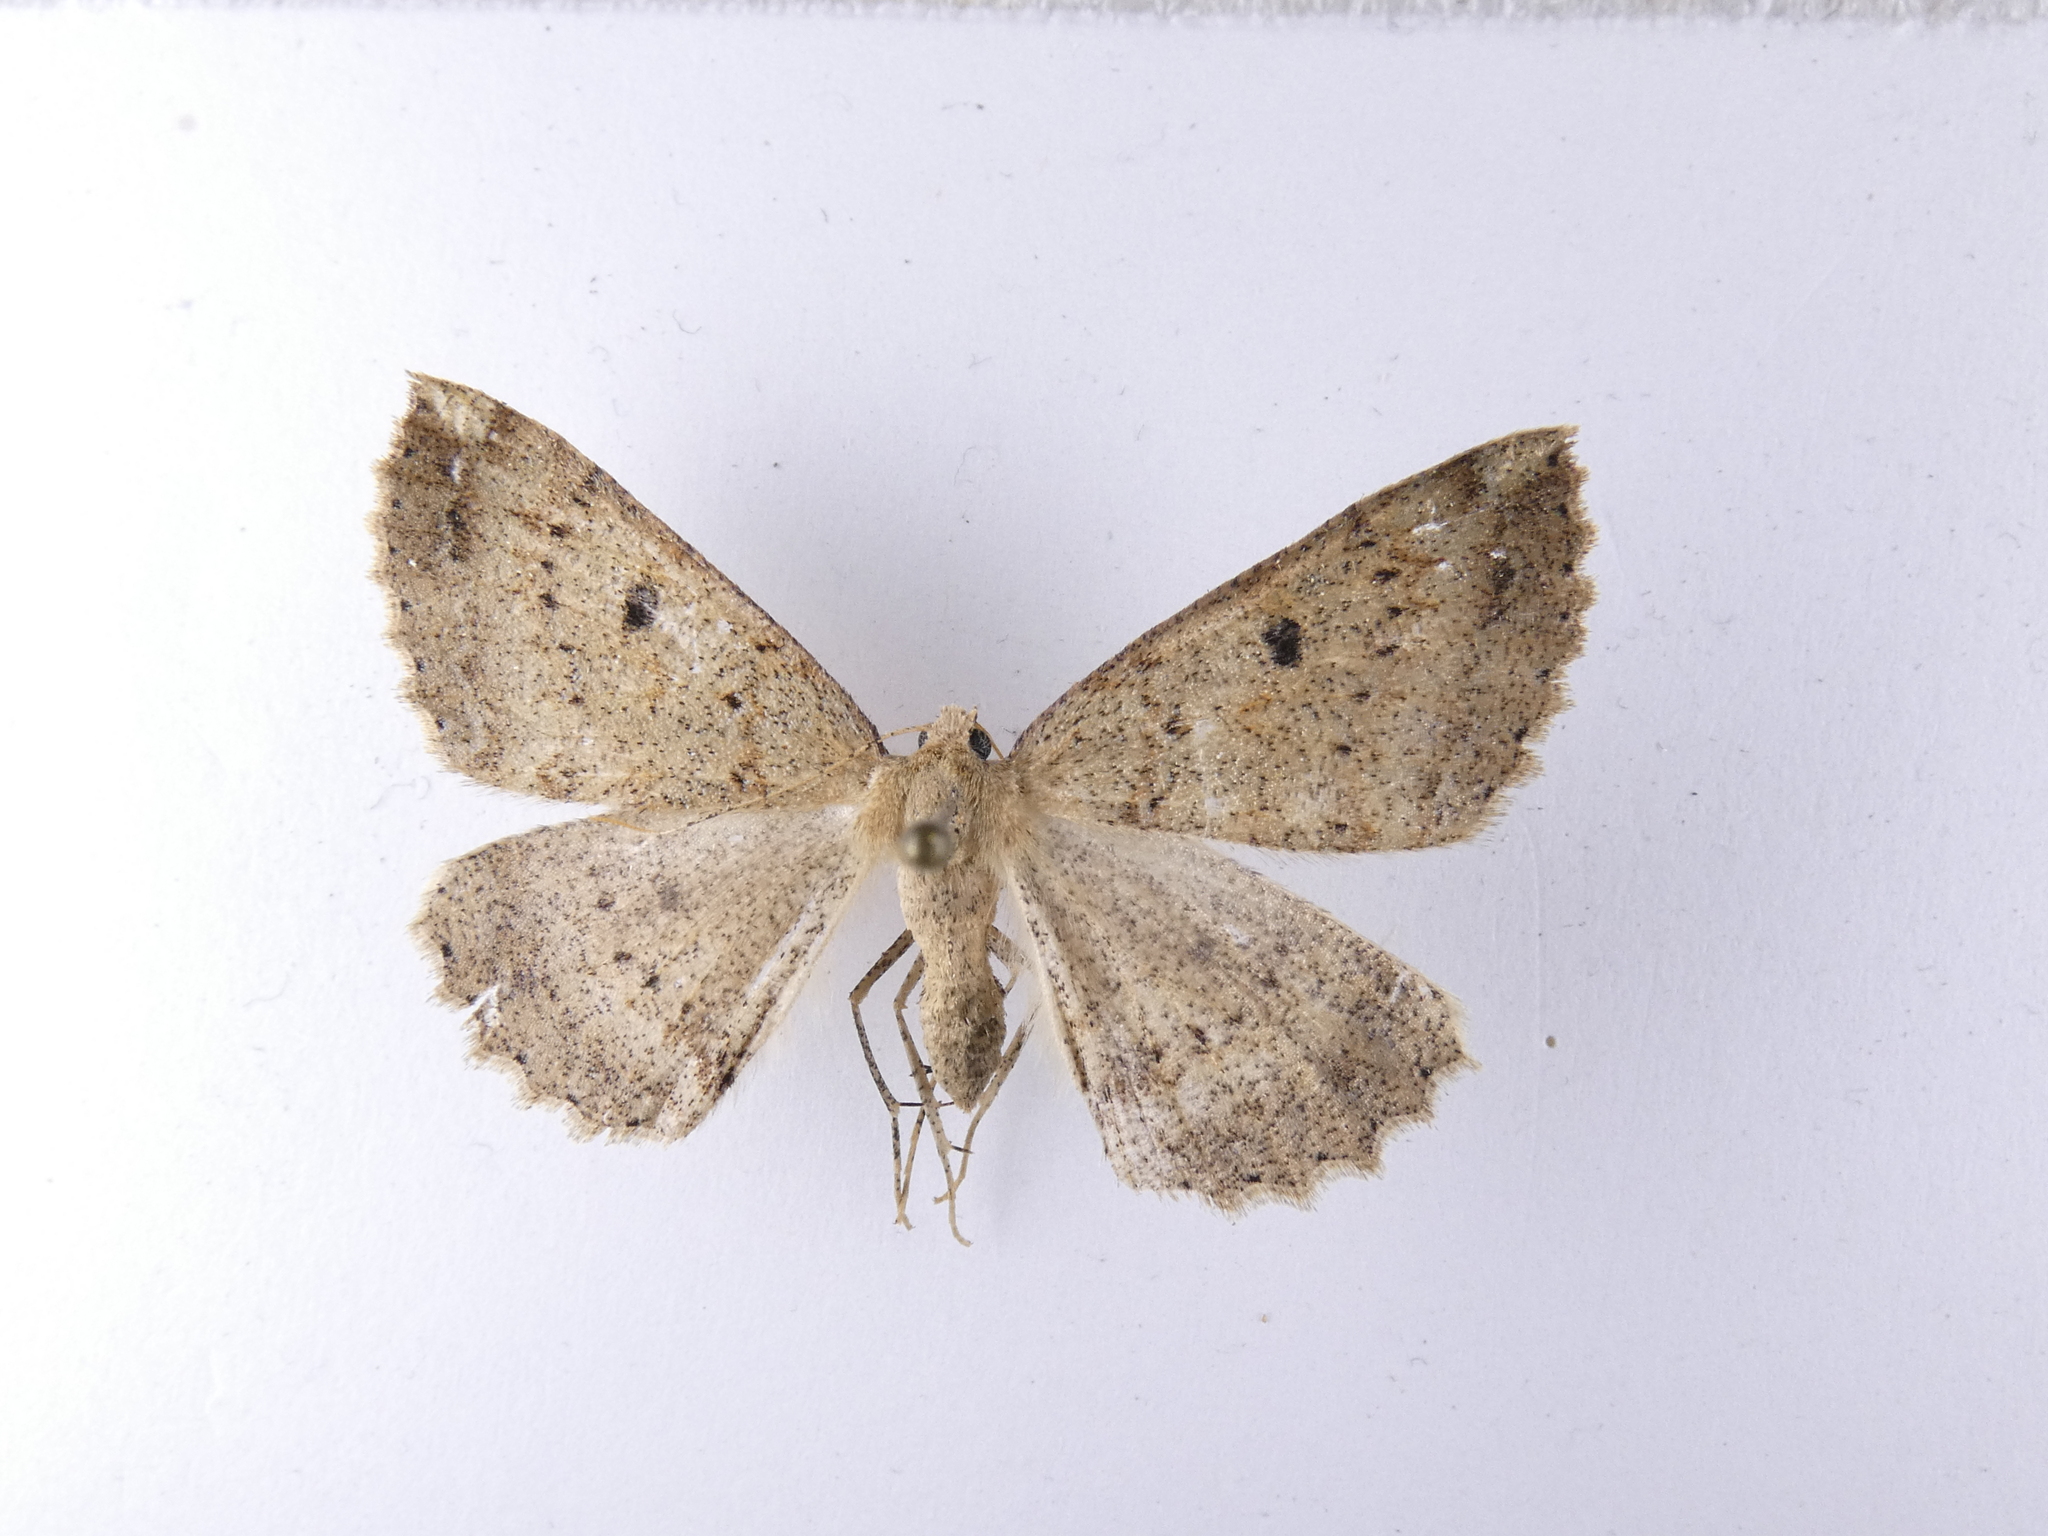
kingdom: Animalia
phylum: Arthropoda
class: Insecta
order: Lepidoptera
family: Geometridae
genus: Cleora
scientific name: Cleora scriptaria
